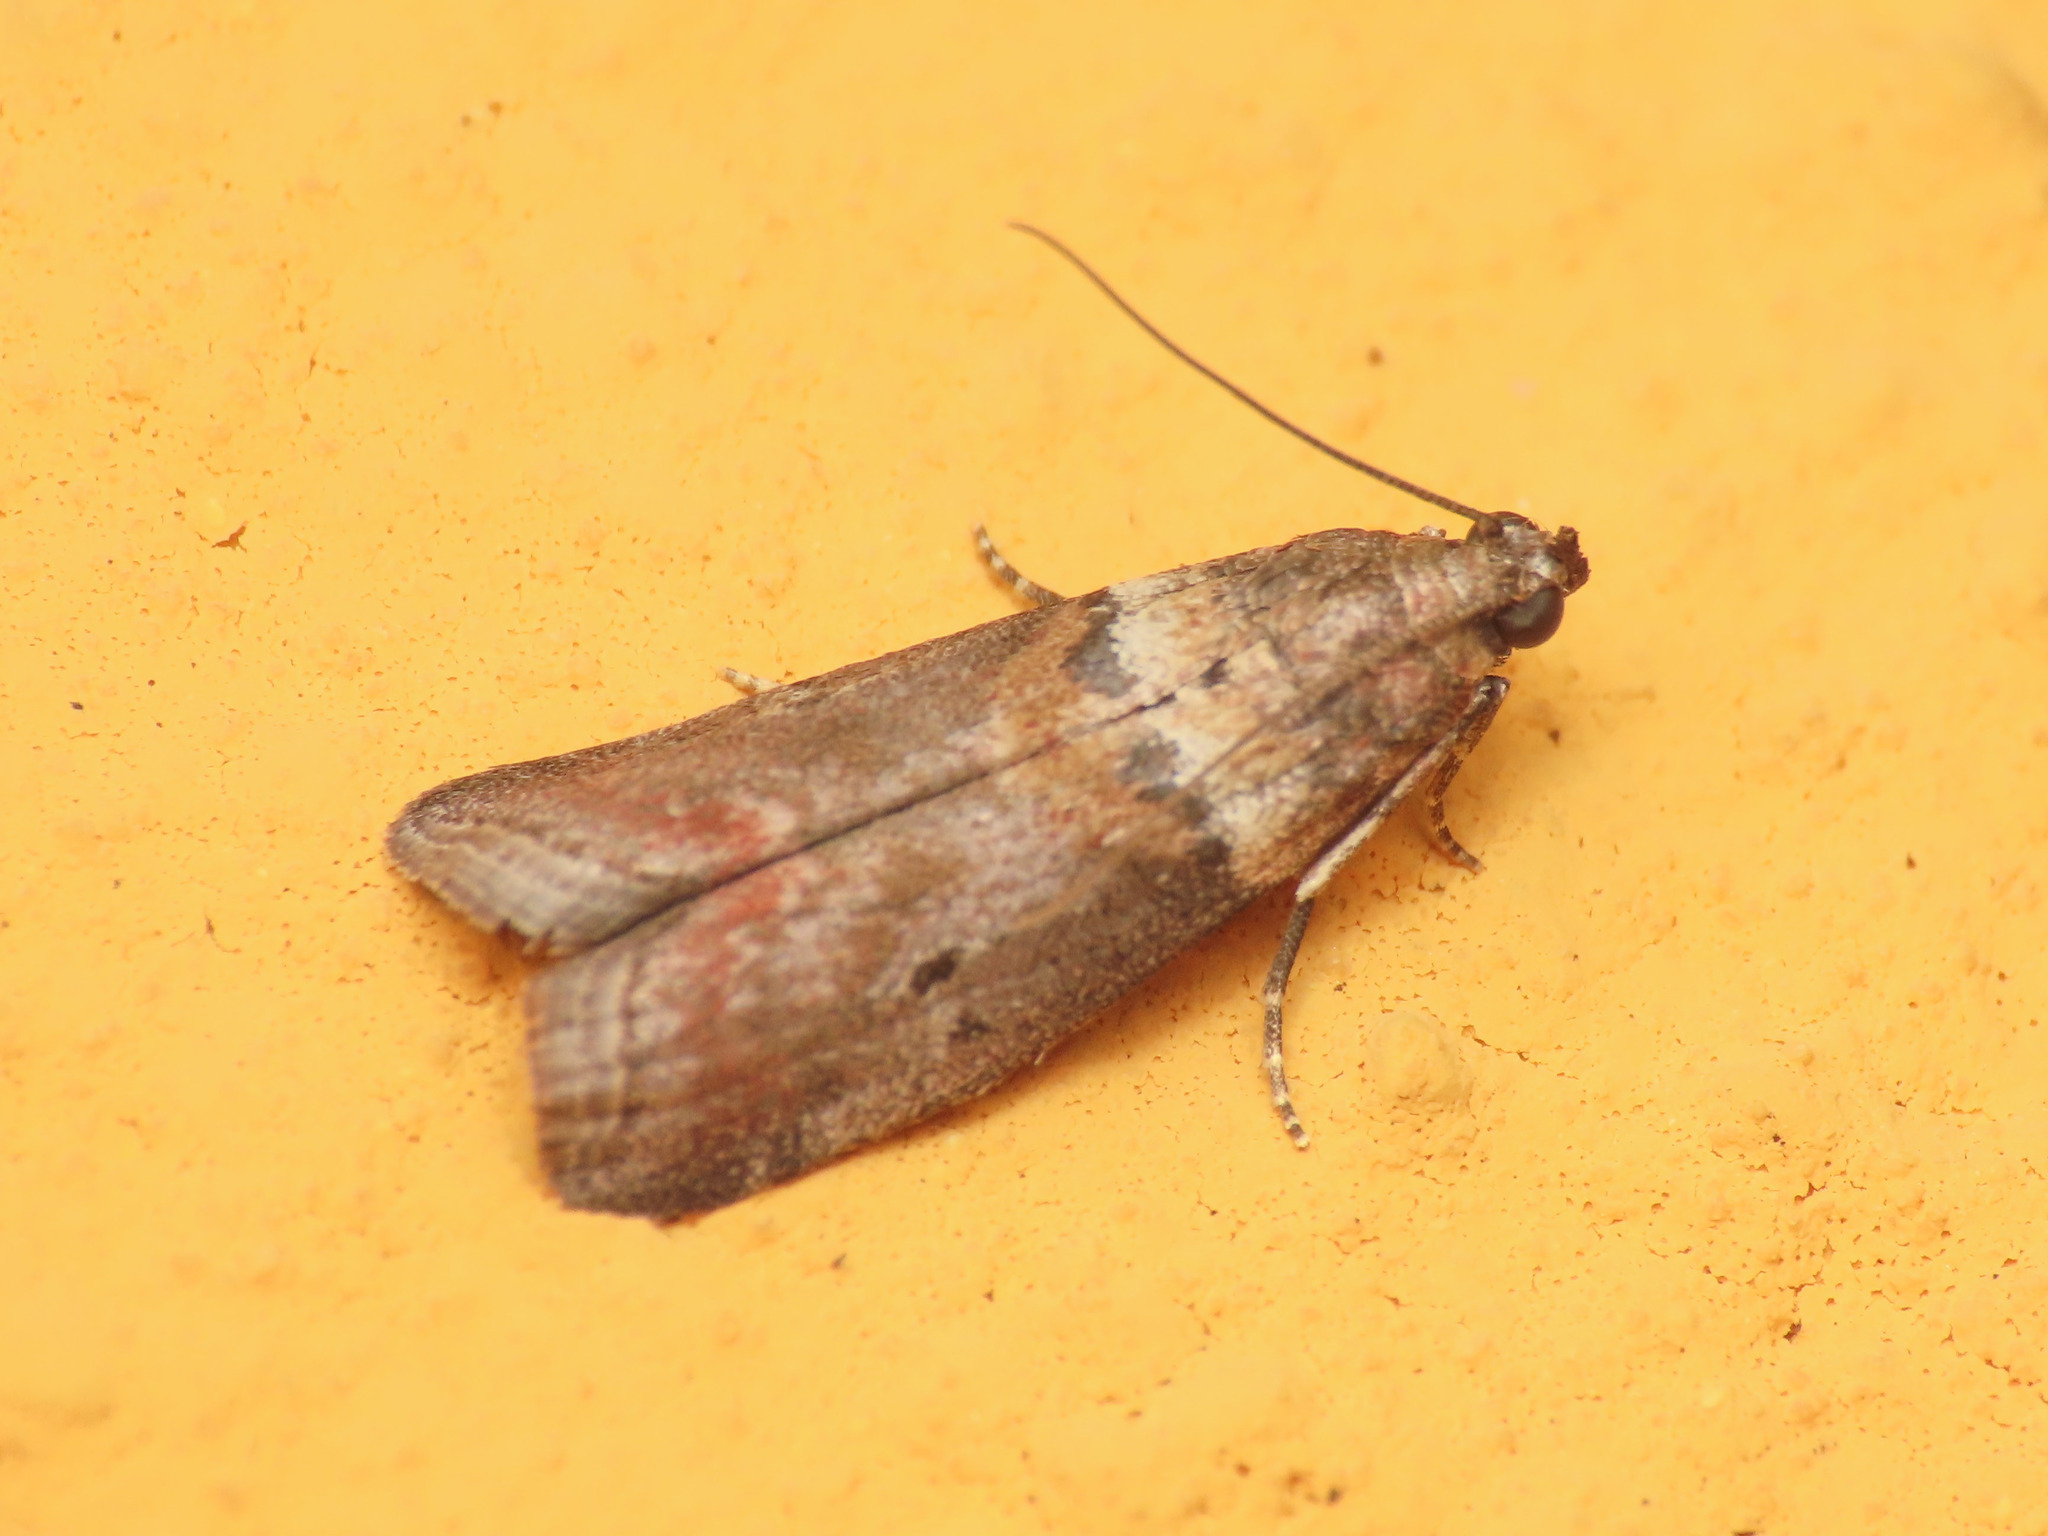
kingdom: Animalia
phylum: Arthropoda
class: Insecta
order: Lepidoptera
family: Pyralidae
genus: Acrobasis
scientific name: Acrobasis consociella
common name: Broad-barred knot-horn
